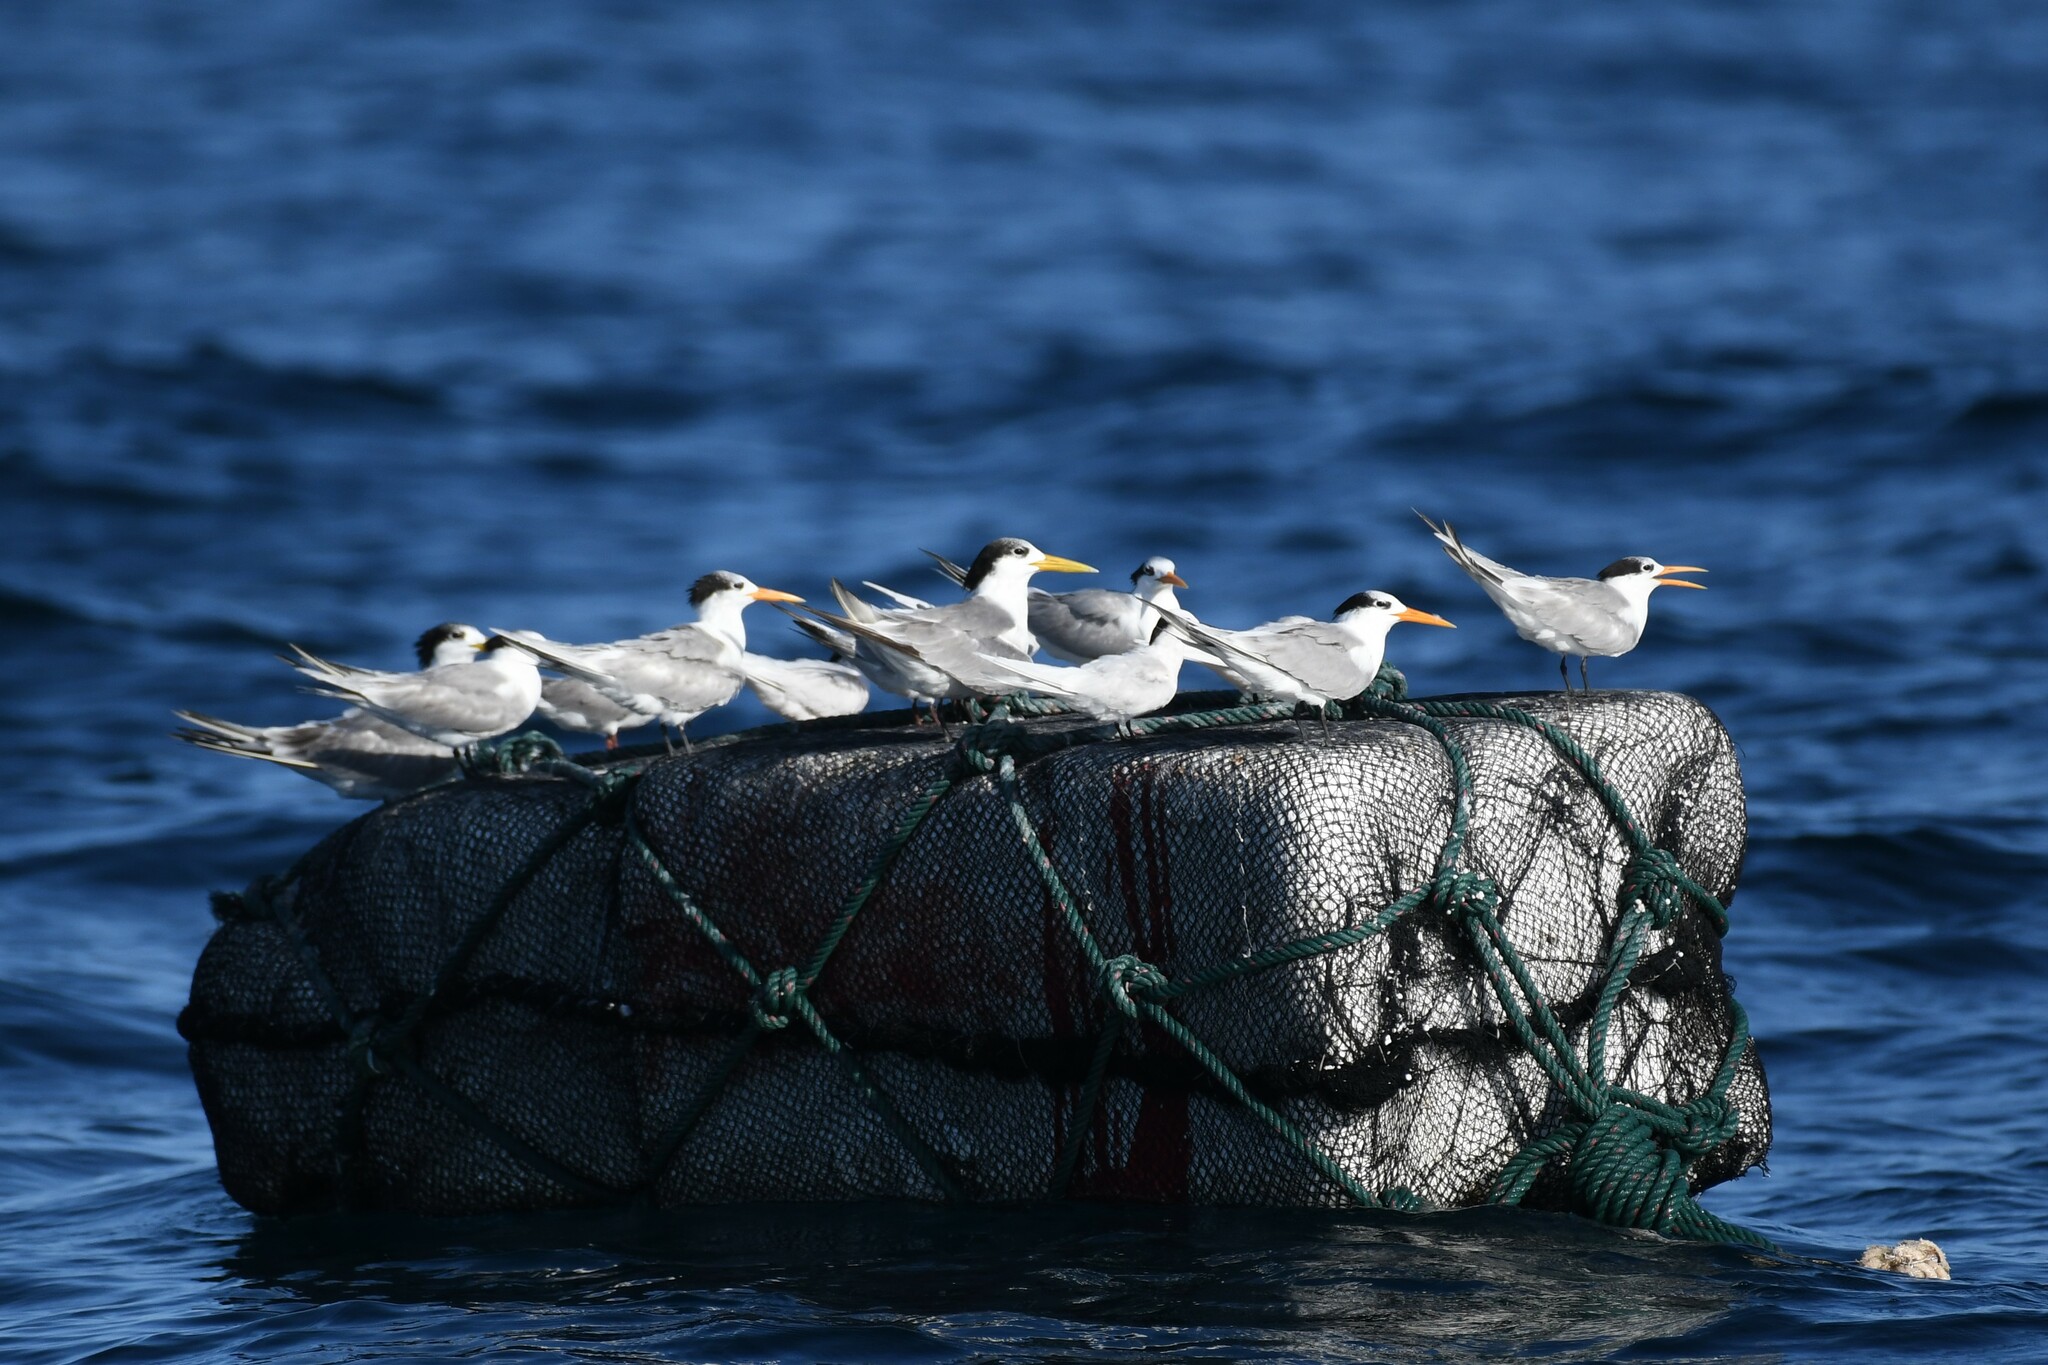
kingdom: Animalia
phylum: Chordata
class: Aves
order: Charadriiformes
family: Laridae
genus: Thalasseus
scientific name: Thalasseus bengalensis
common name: Lesser crested tern
